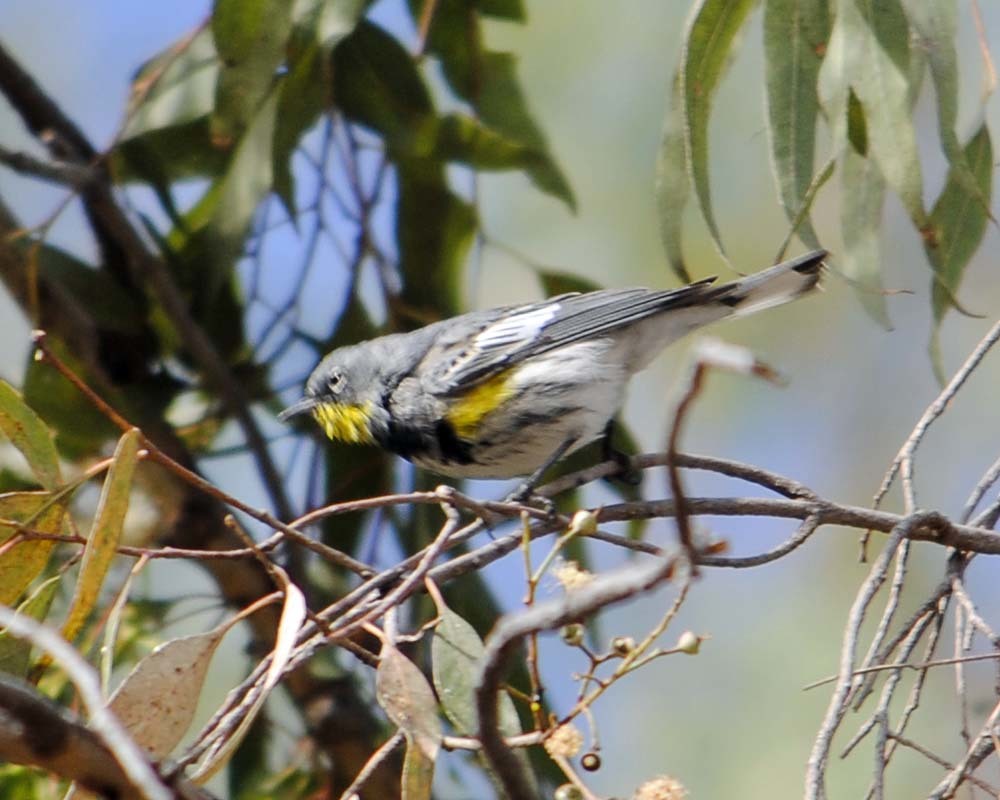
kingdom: Animalia
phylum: Chordata
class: Aves
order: Passeriformes
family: Parulidae
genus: Setophaga
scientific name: Setophaga auduboni
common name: Audubon's warbler
